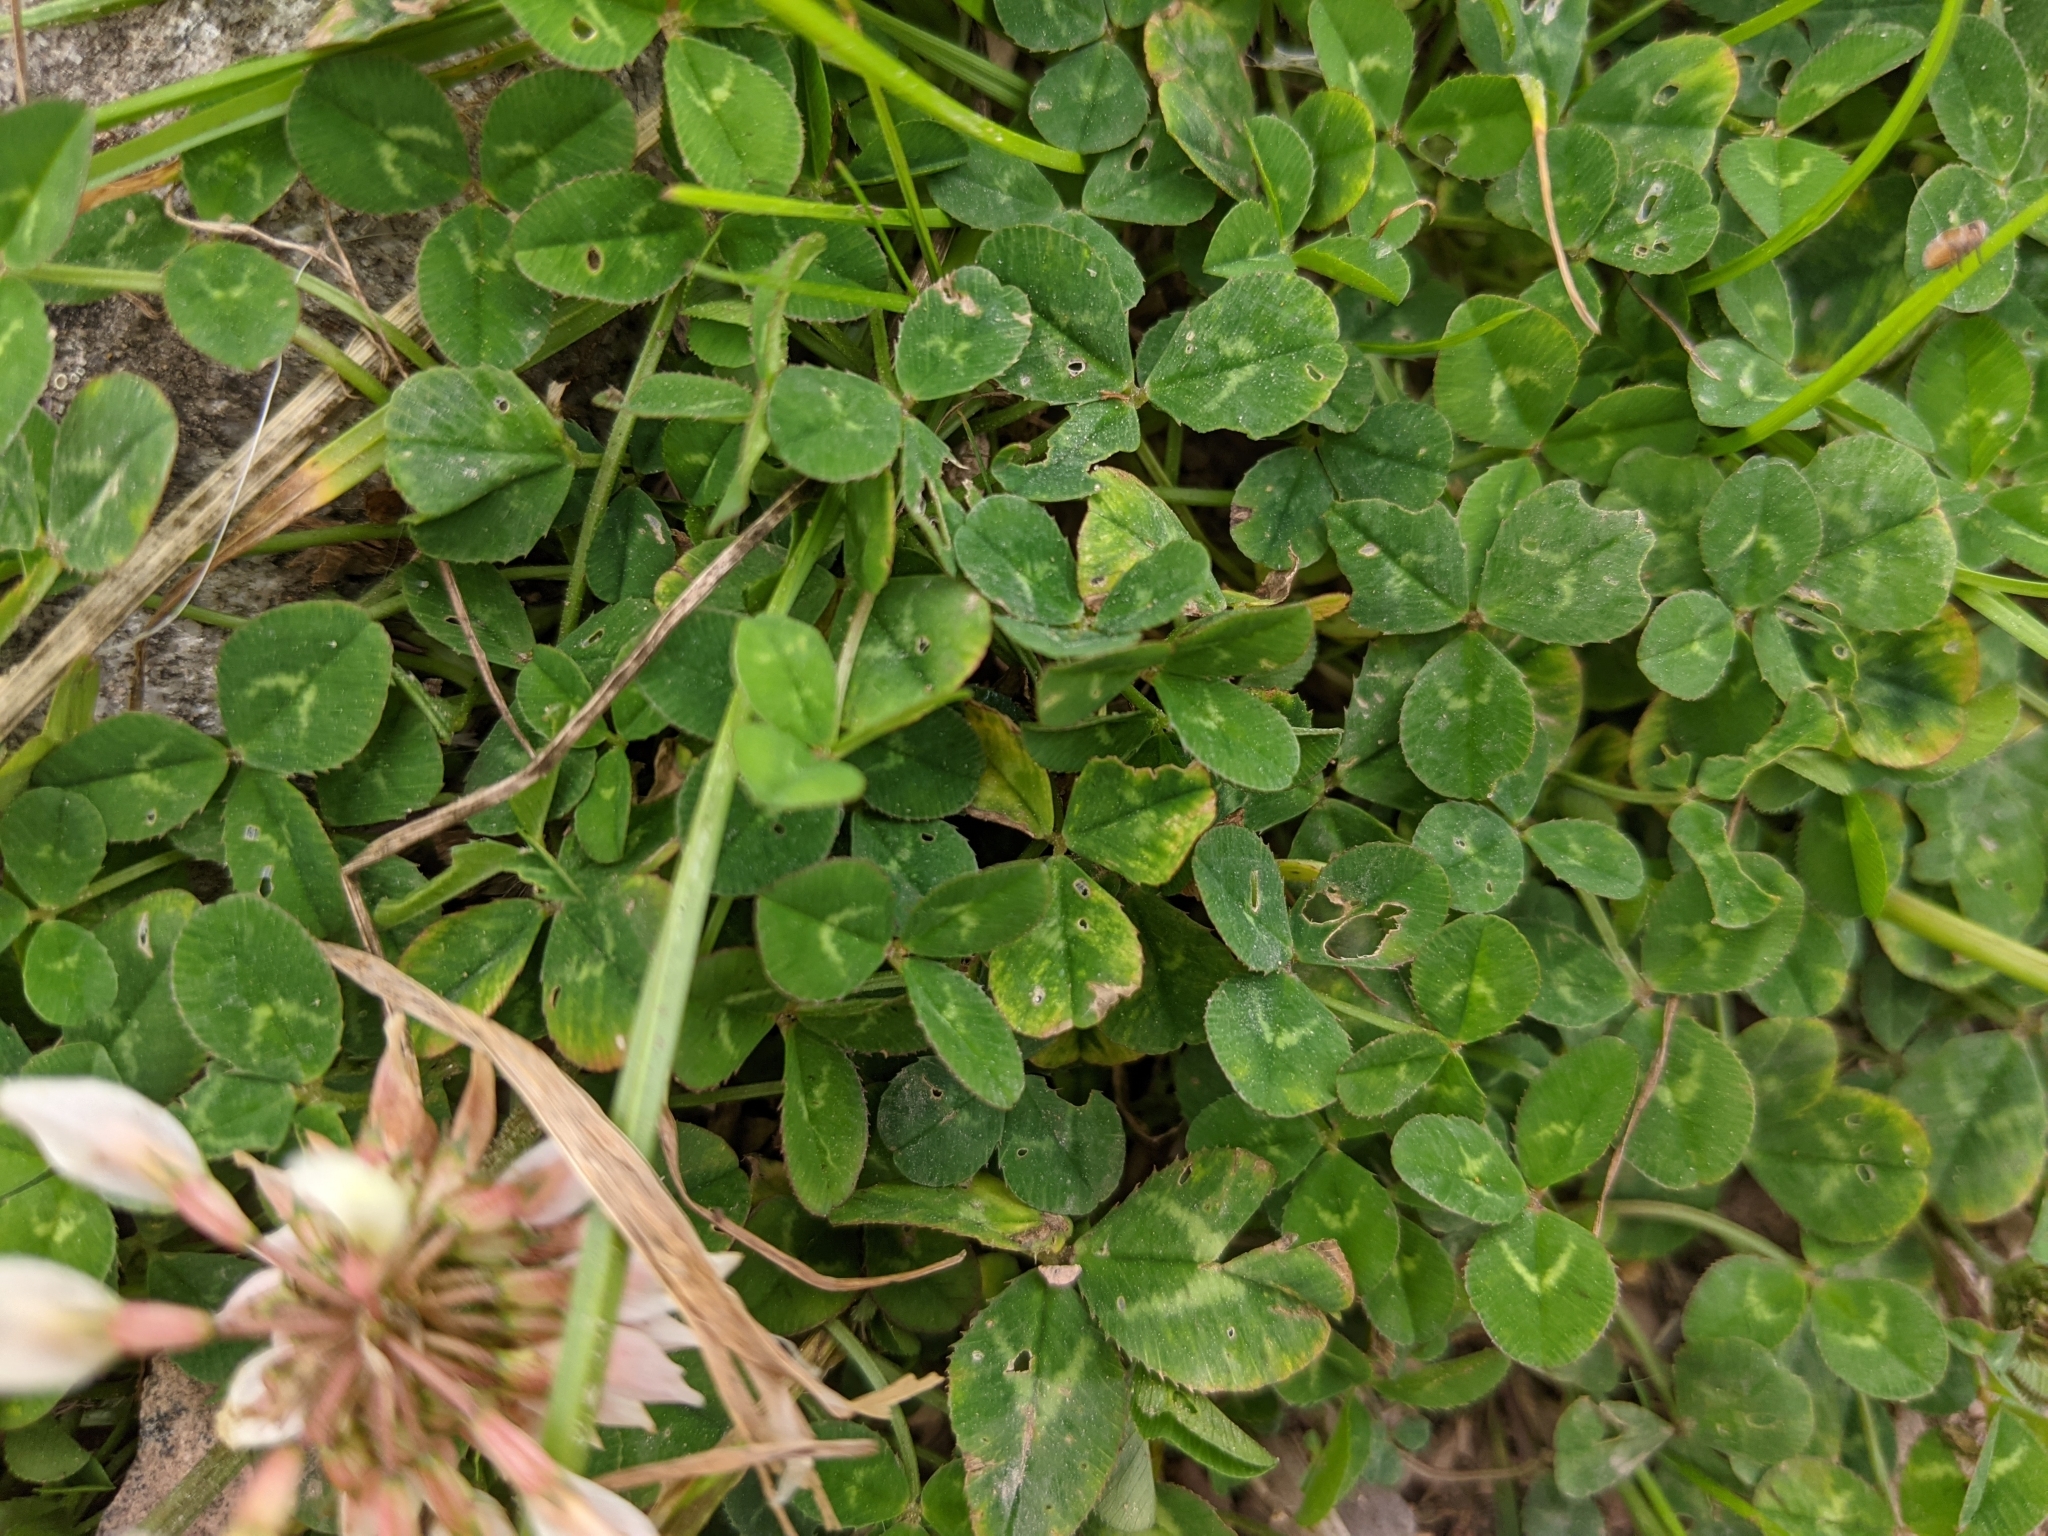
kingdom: Plantae
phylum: Tracheophyta
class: Magnoliopsida
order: Fabales
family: Fabaceae
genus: Trifolium
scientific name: Trifolium repens
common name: White clover
